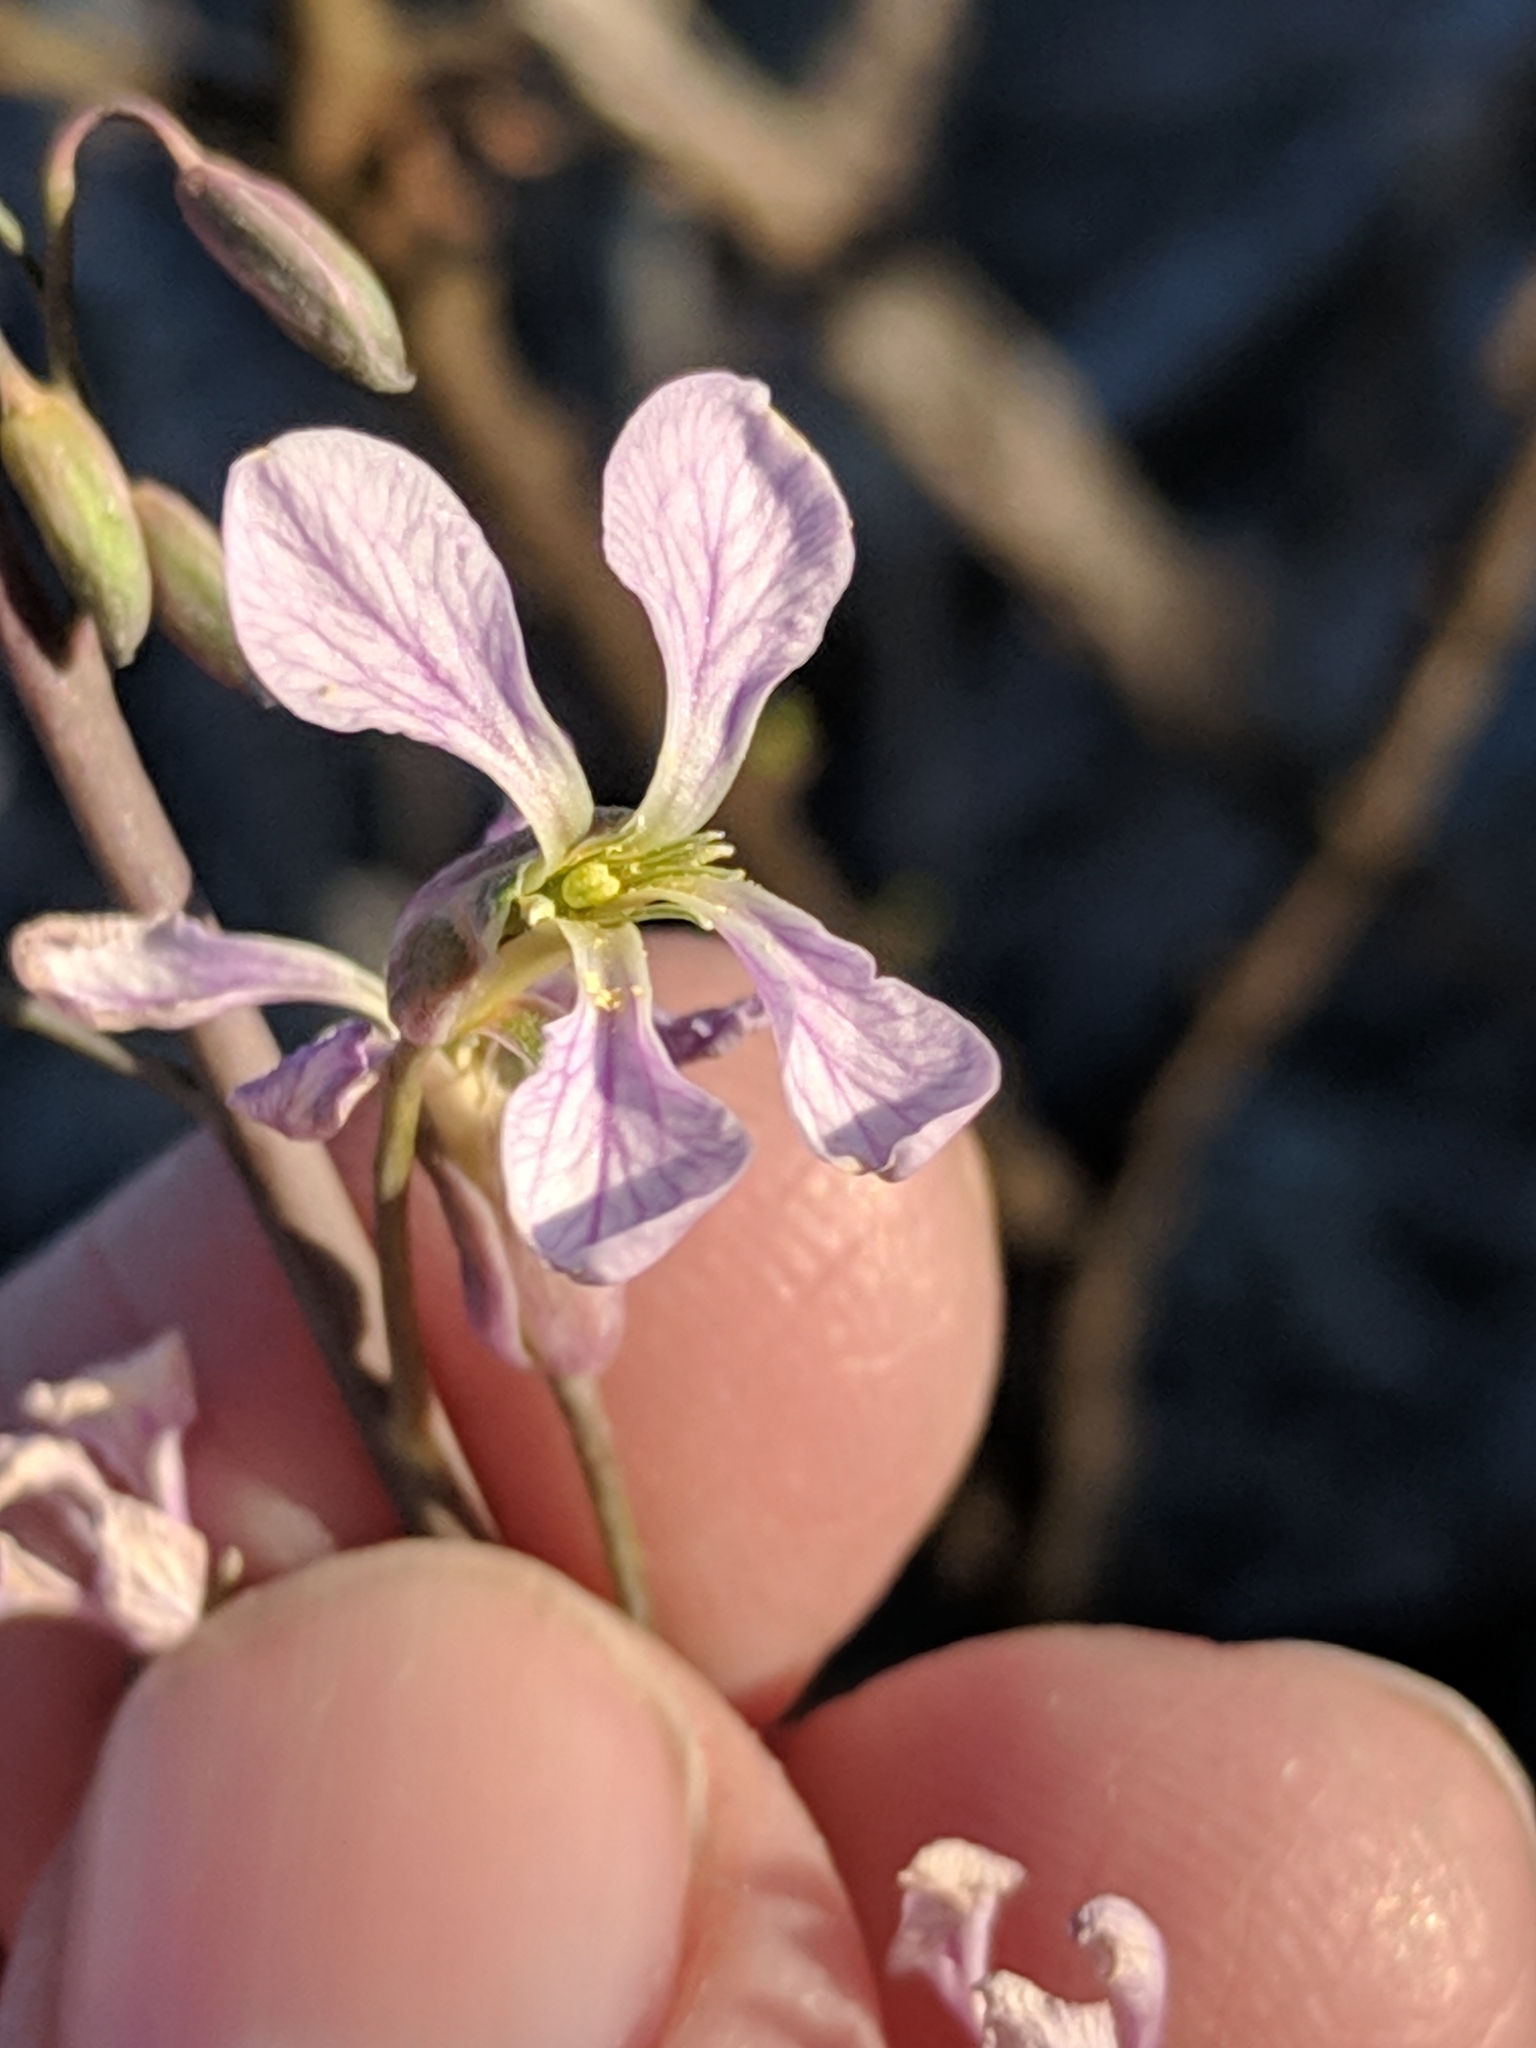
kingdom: Plantae
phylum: Tracheophyta
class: Magnoliopsida
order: Brassicales
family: Brassicaceae
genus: Hesperidanthus
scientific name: Hesperidanthus linearifolius
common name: Slim-leaf plains mustard
